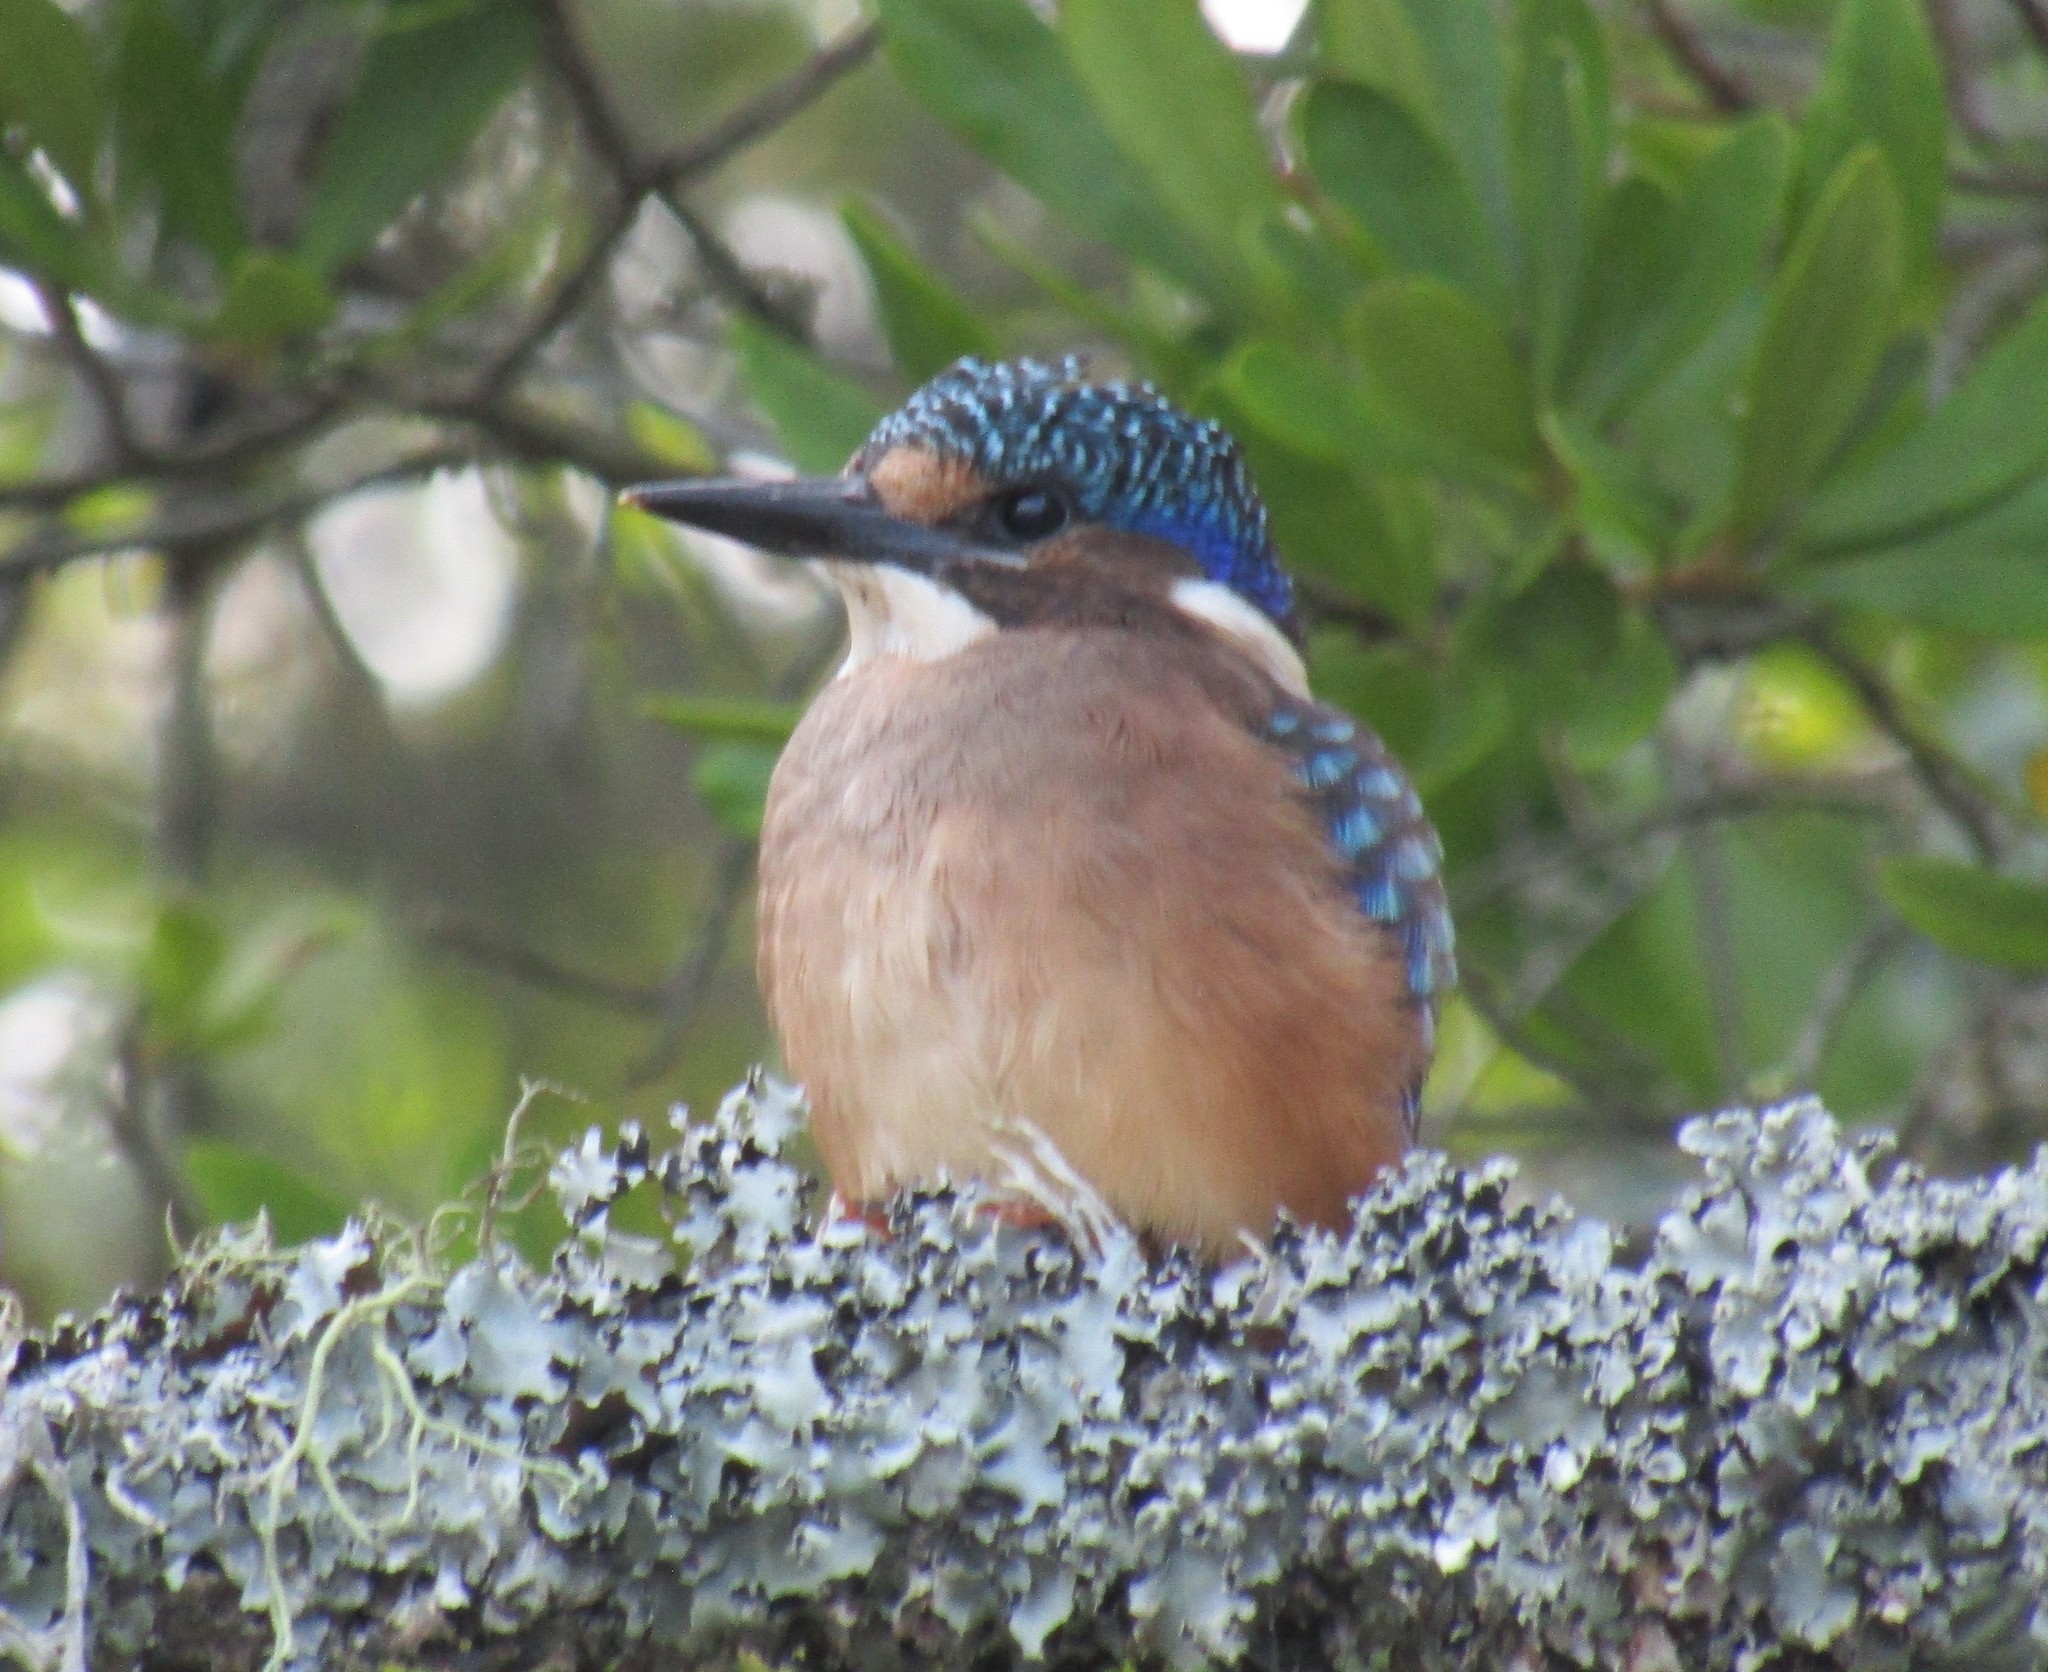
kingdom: Animalia
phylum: Chordata
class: Aves
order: Coraciiformes
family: Alcedinidae
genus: Corythornis
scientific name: Corythornis cristatus
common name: Malachite kingfisher
